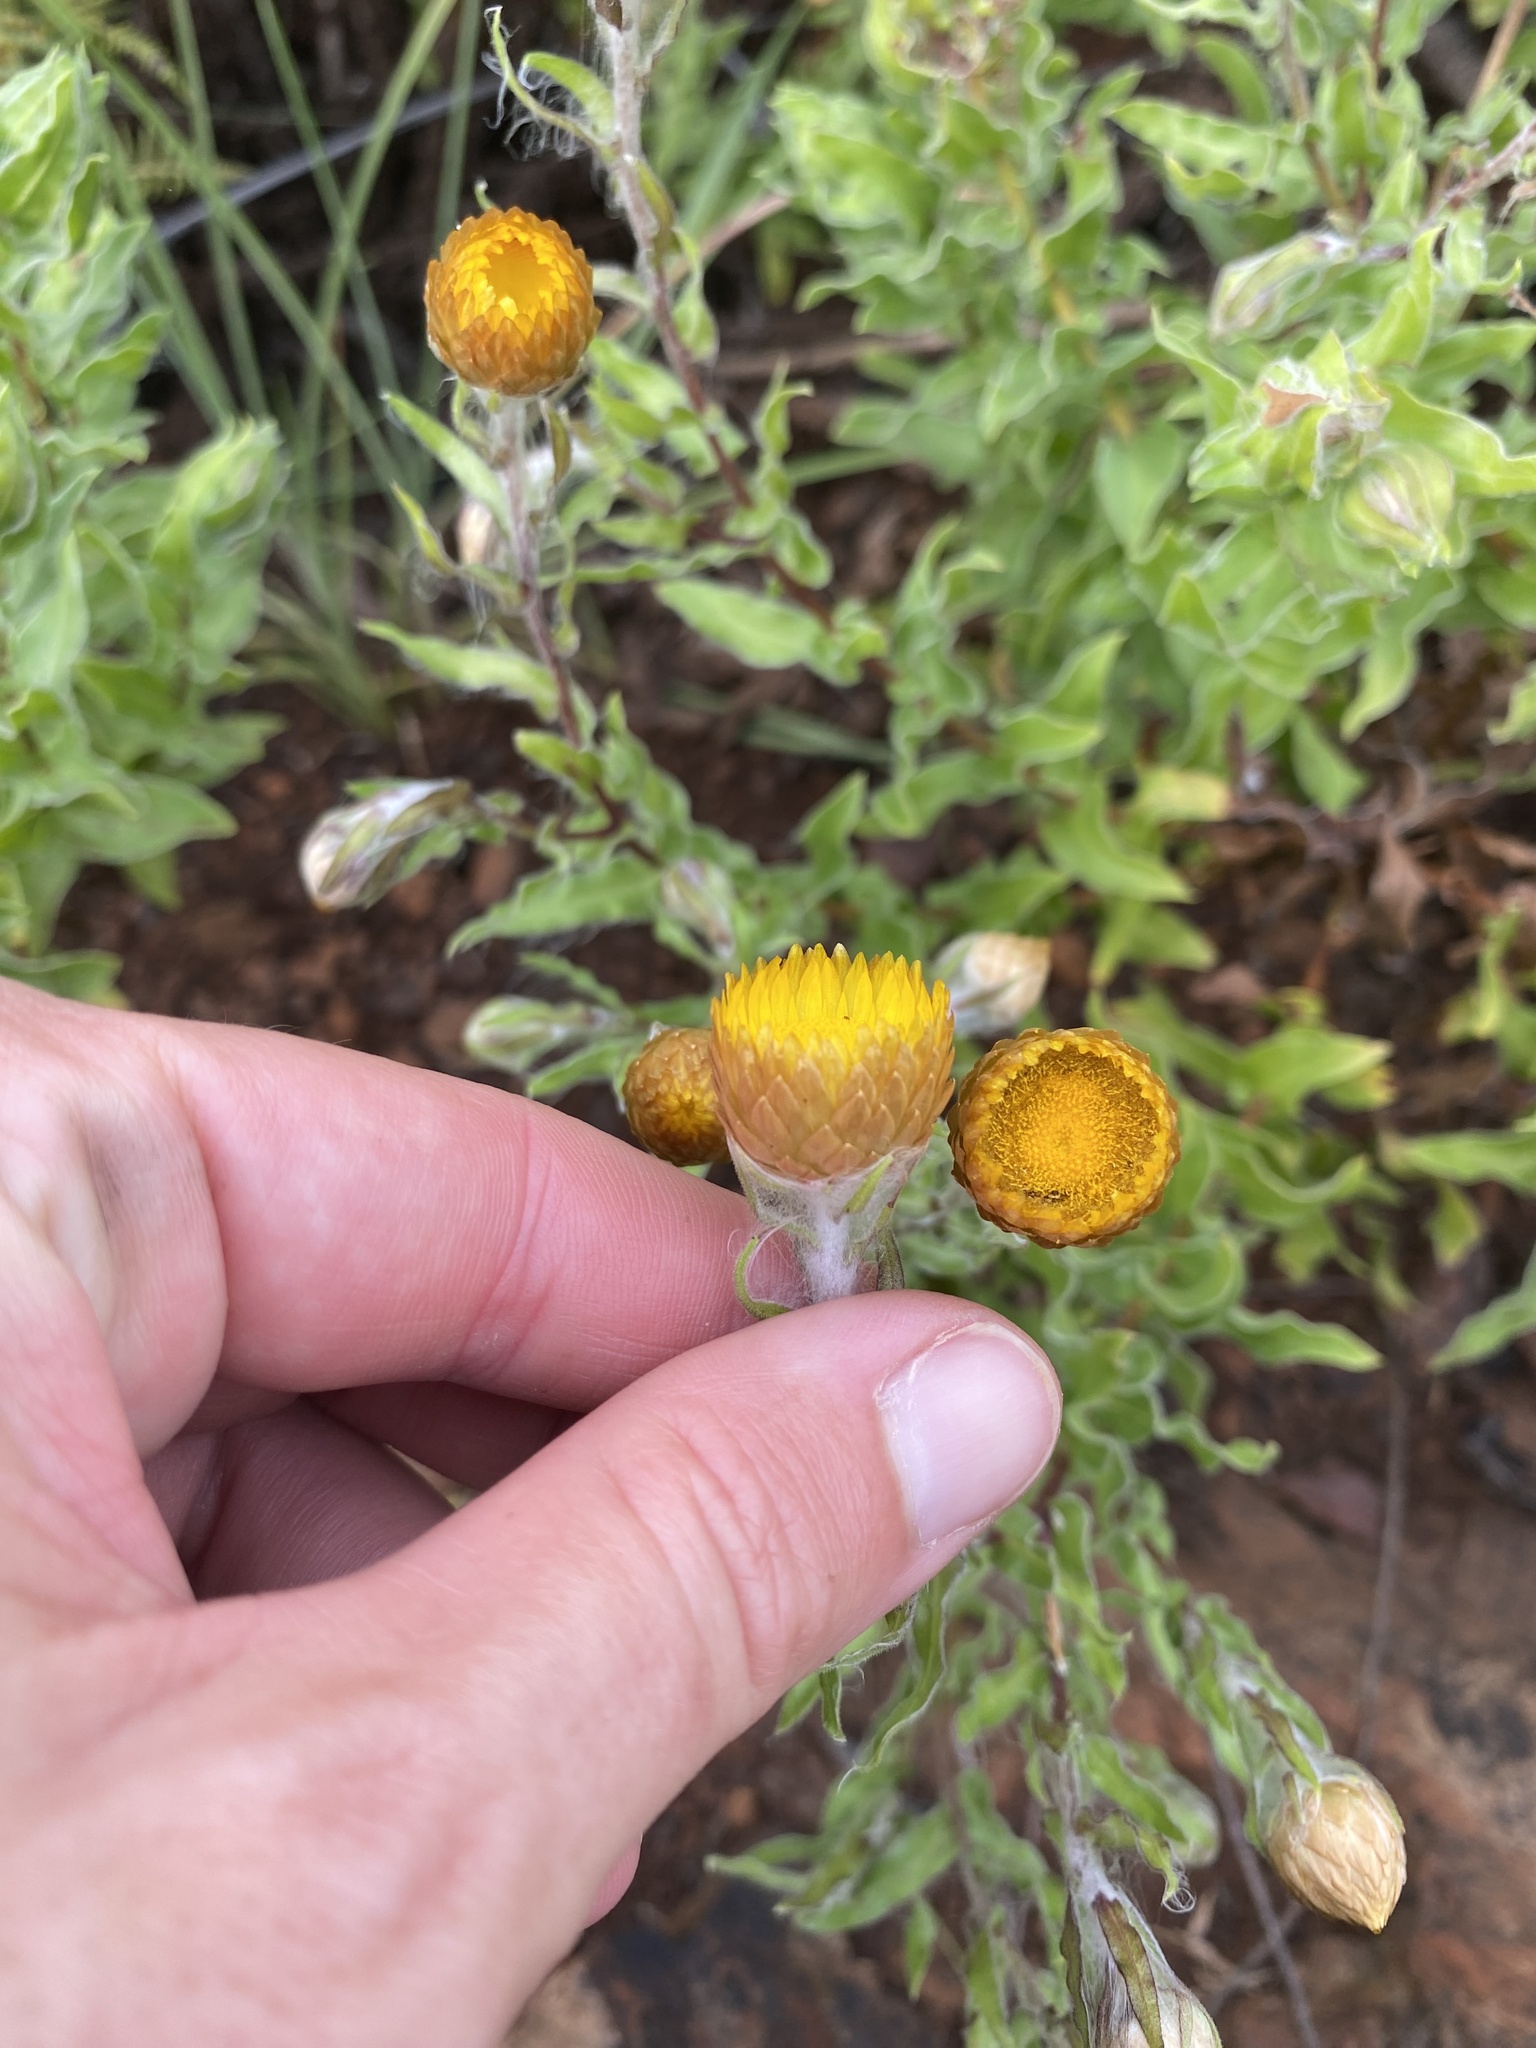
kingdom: Plantae
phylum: Tracheophyta
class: Magnoliopsida
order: Asterales
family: Asteraceae
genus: Helichrysum
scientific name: Helichrysum cooperi
